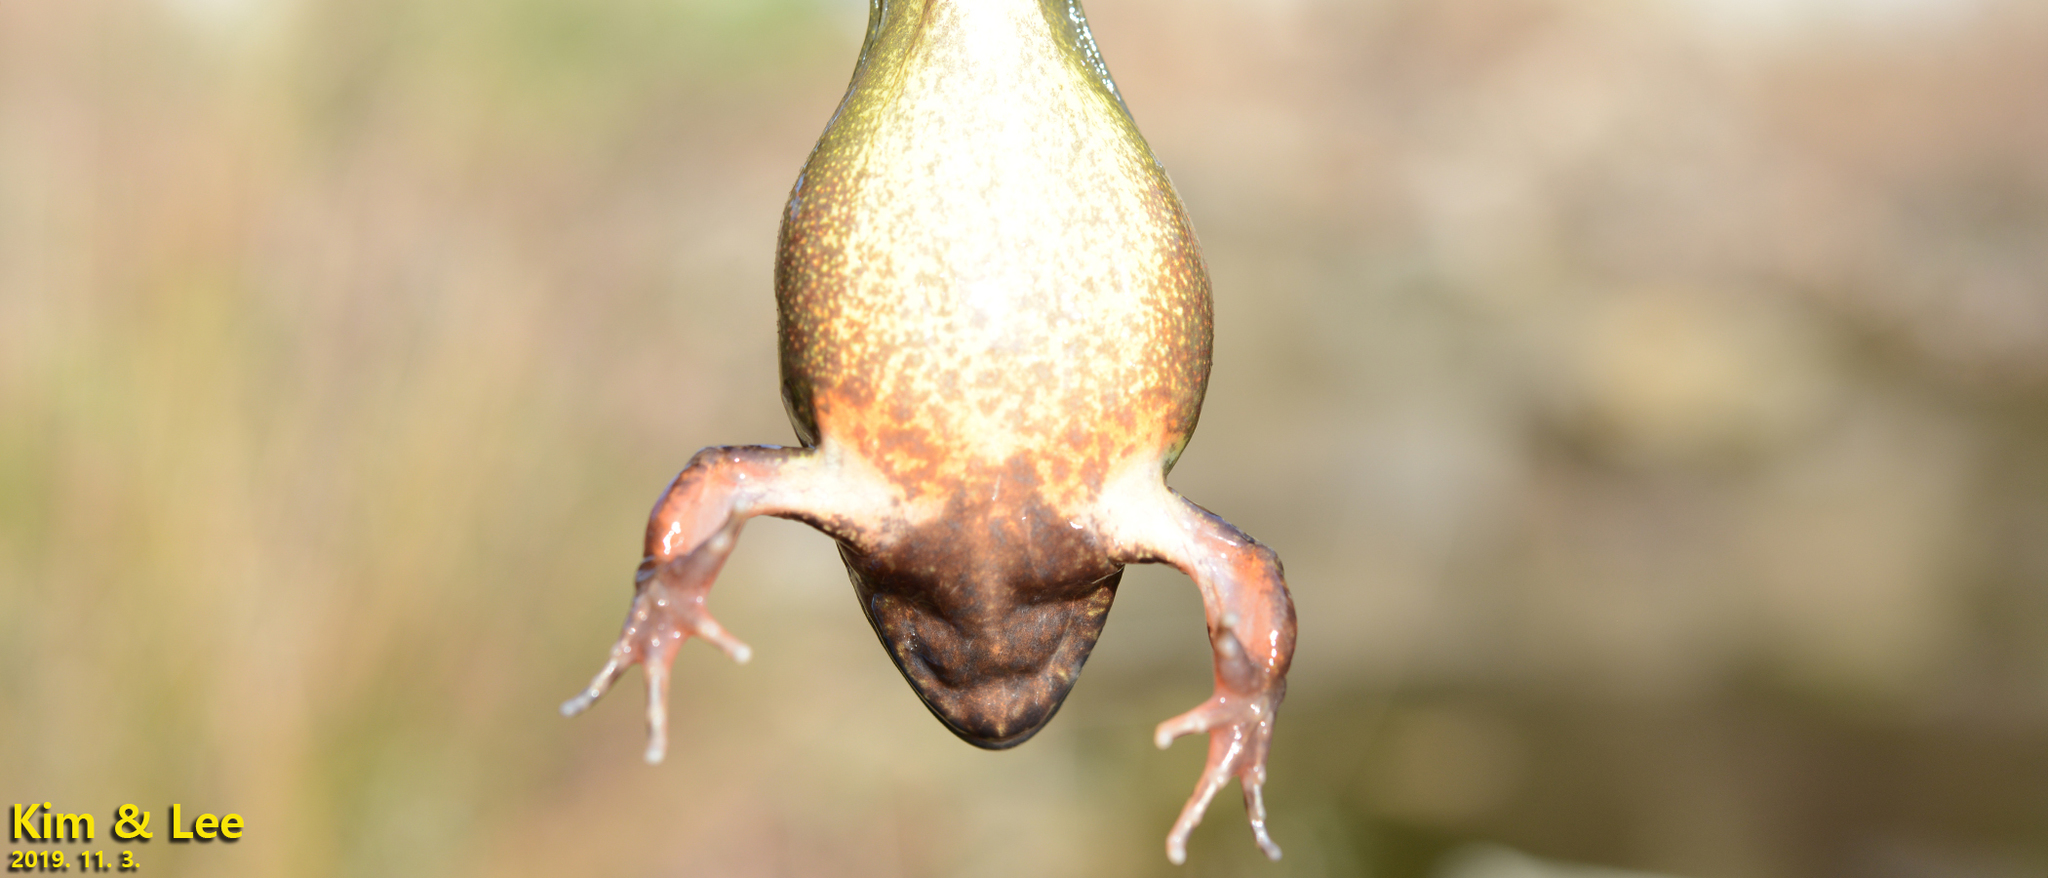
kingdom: Animalia
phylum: Chordata
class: Amphibia
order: Anura
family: Ranidae
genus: Rana
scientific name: Rana uenoi
